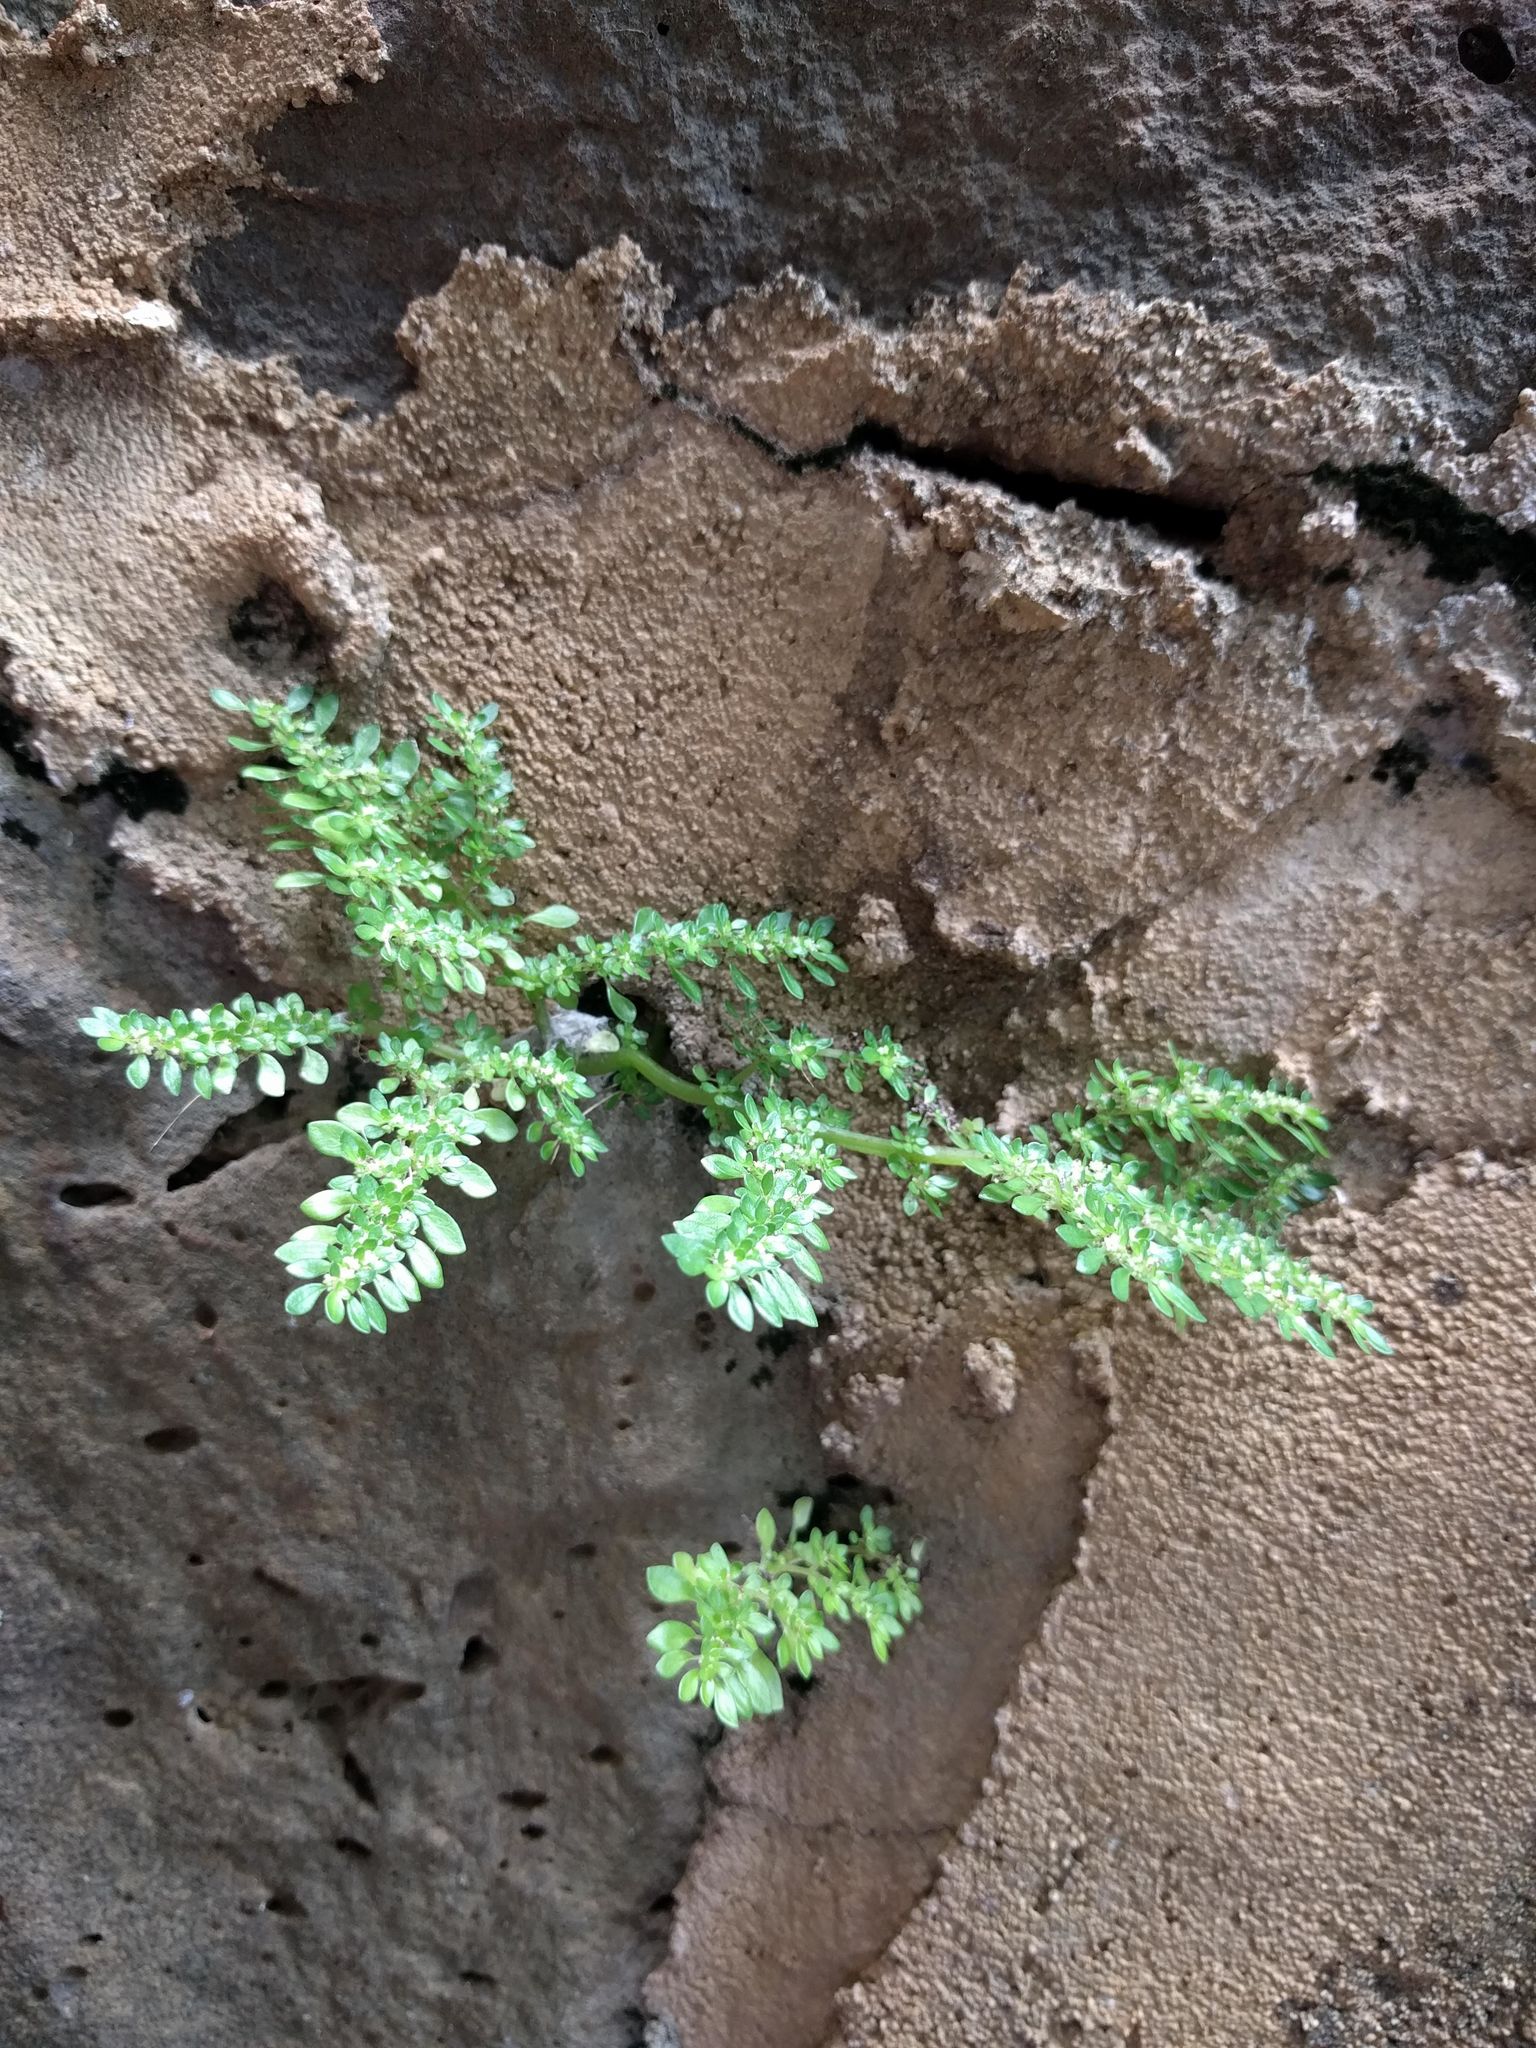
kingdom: Plantae
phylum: Tracheophyta
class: Magnoliopsida
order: Rosales
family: Urticaceae
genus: Pilea
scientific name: Pilea microphylla
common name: Artillery-plant
